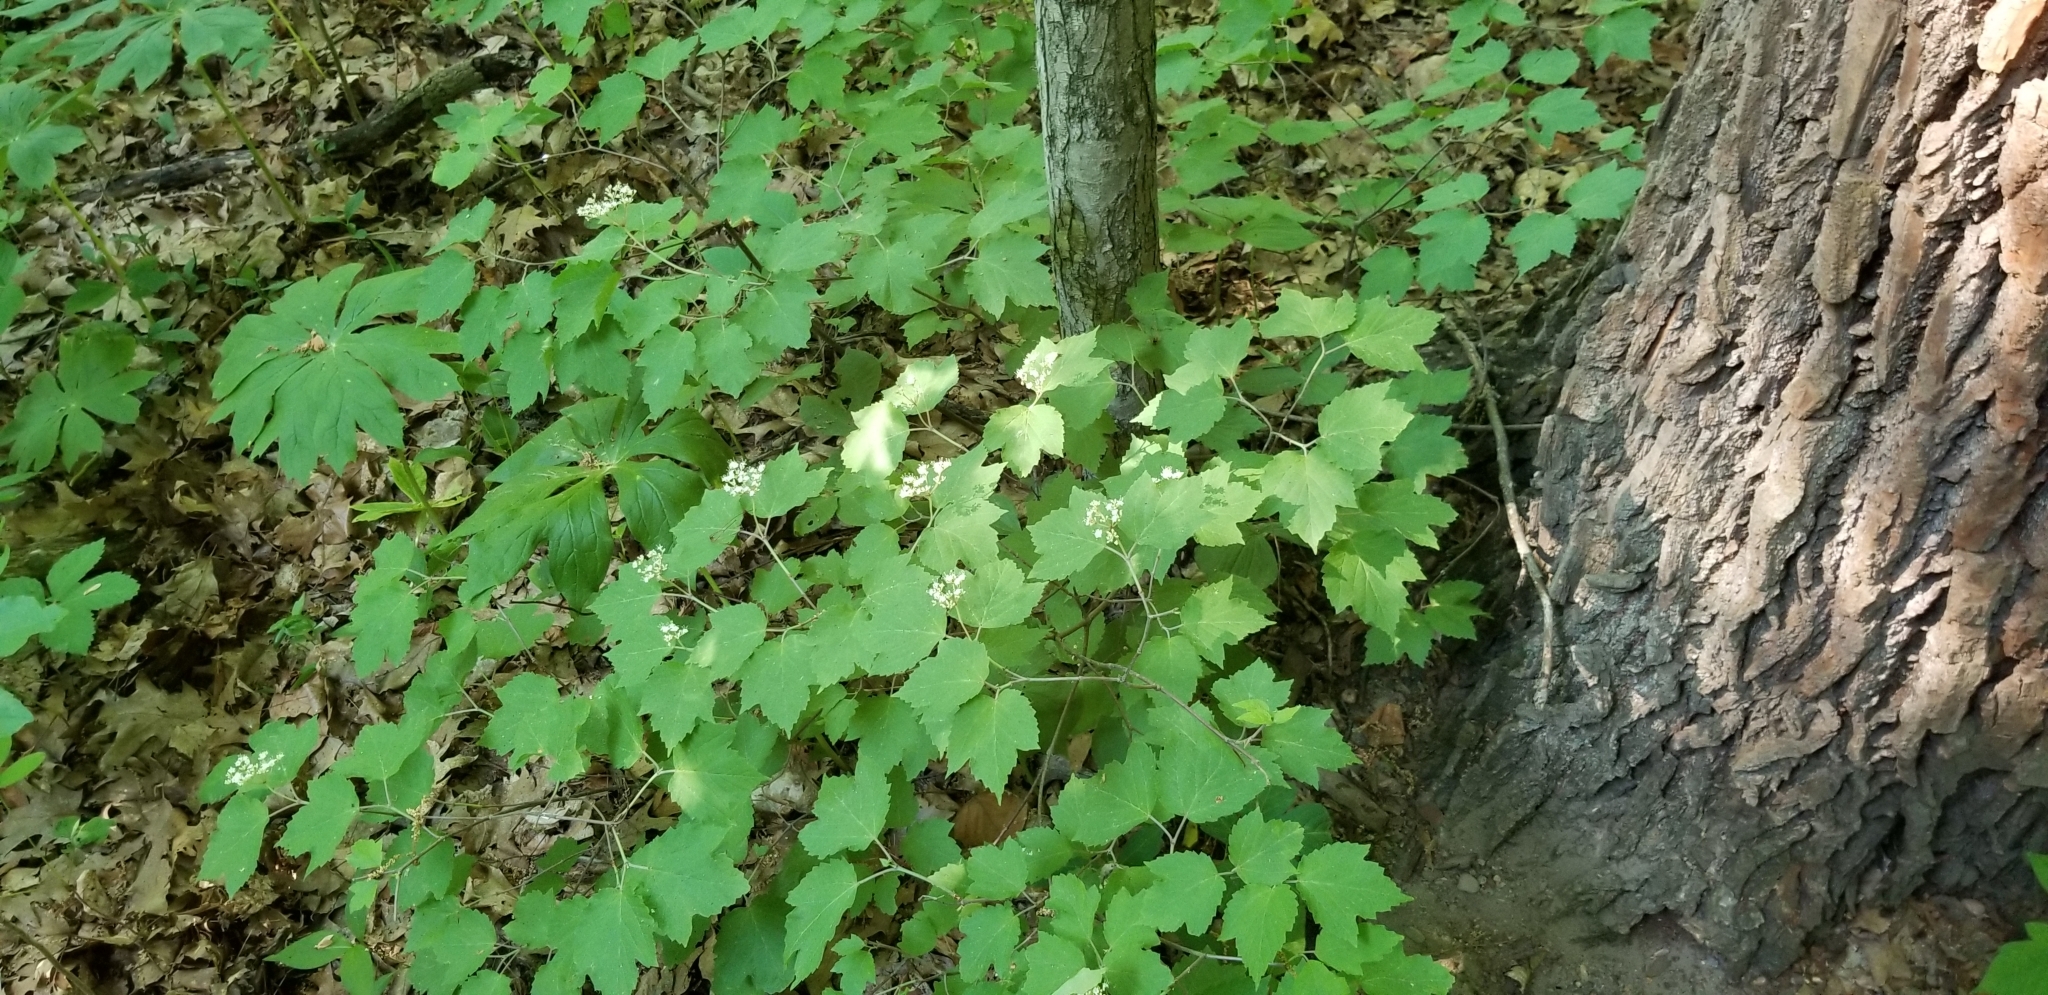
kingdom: Plantae
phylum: Tracheophyta
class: Magnoliopsida
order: Dipsacales
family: Viburnaceae
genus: Viburnum
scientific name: Viburnum acerifolium
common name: Dockmackie
